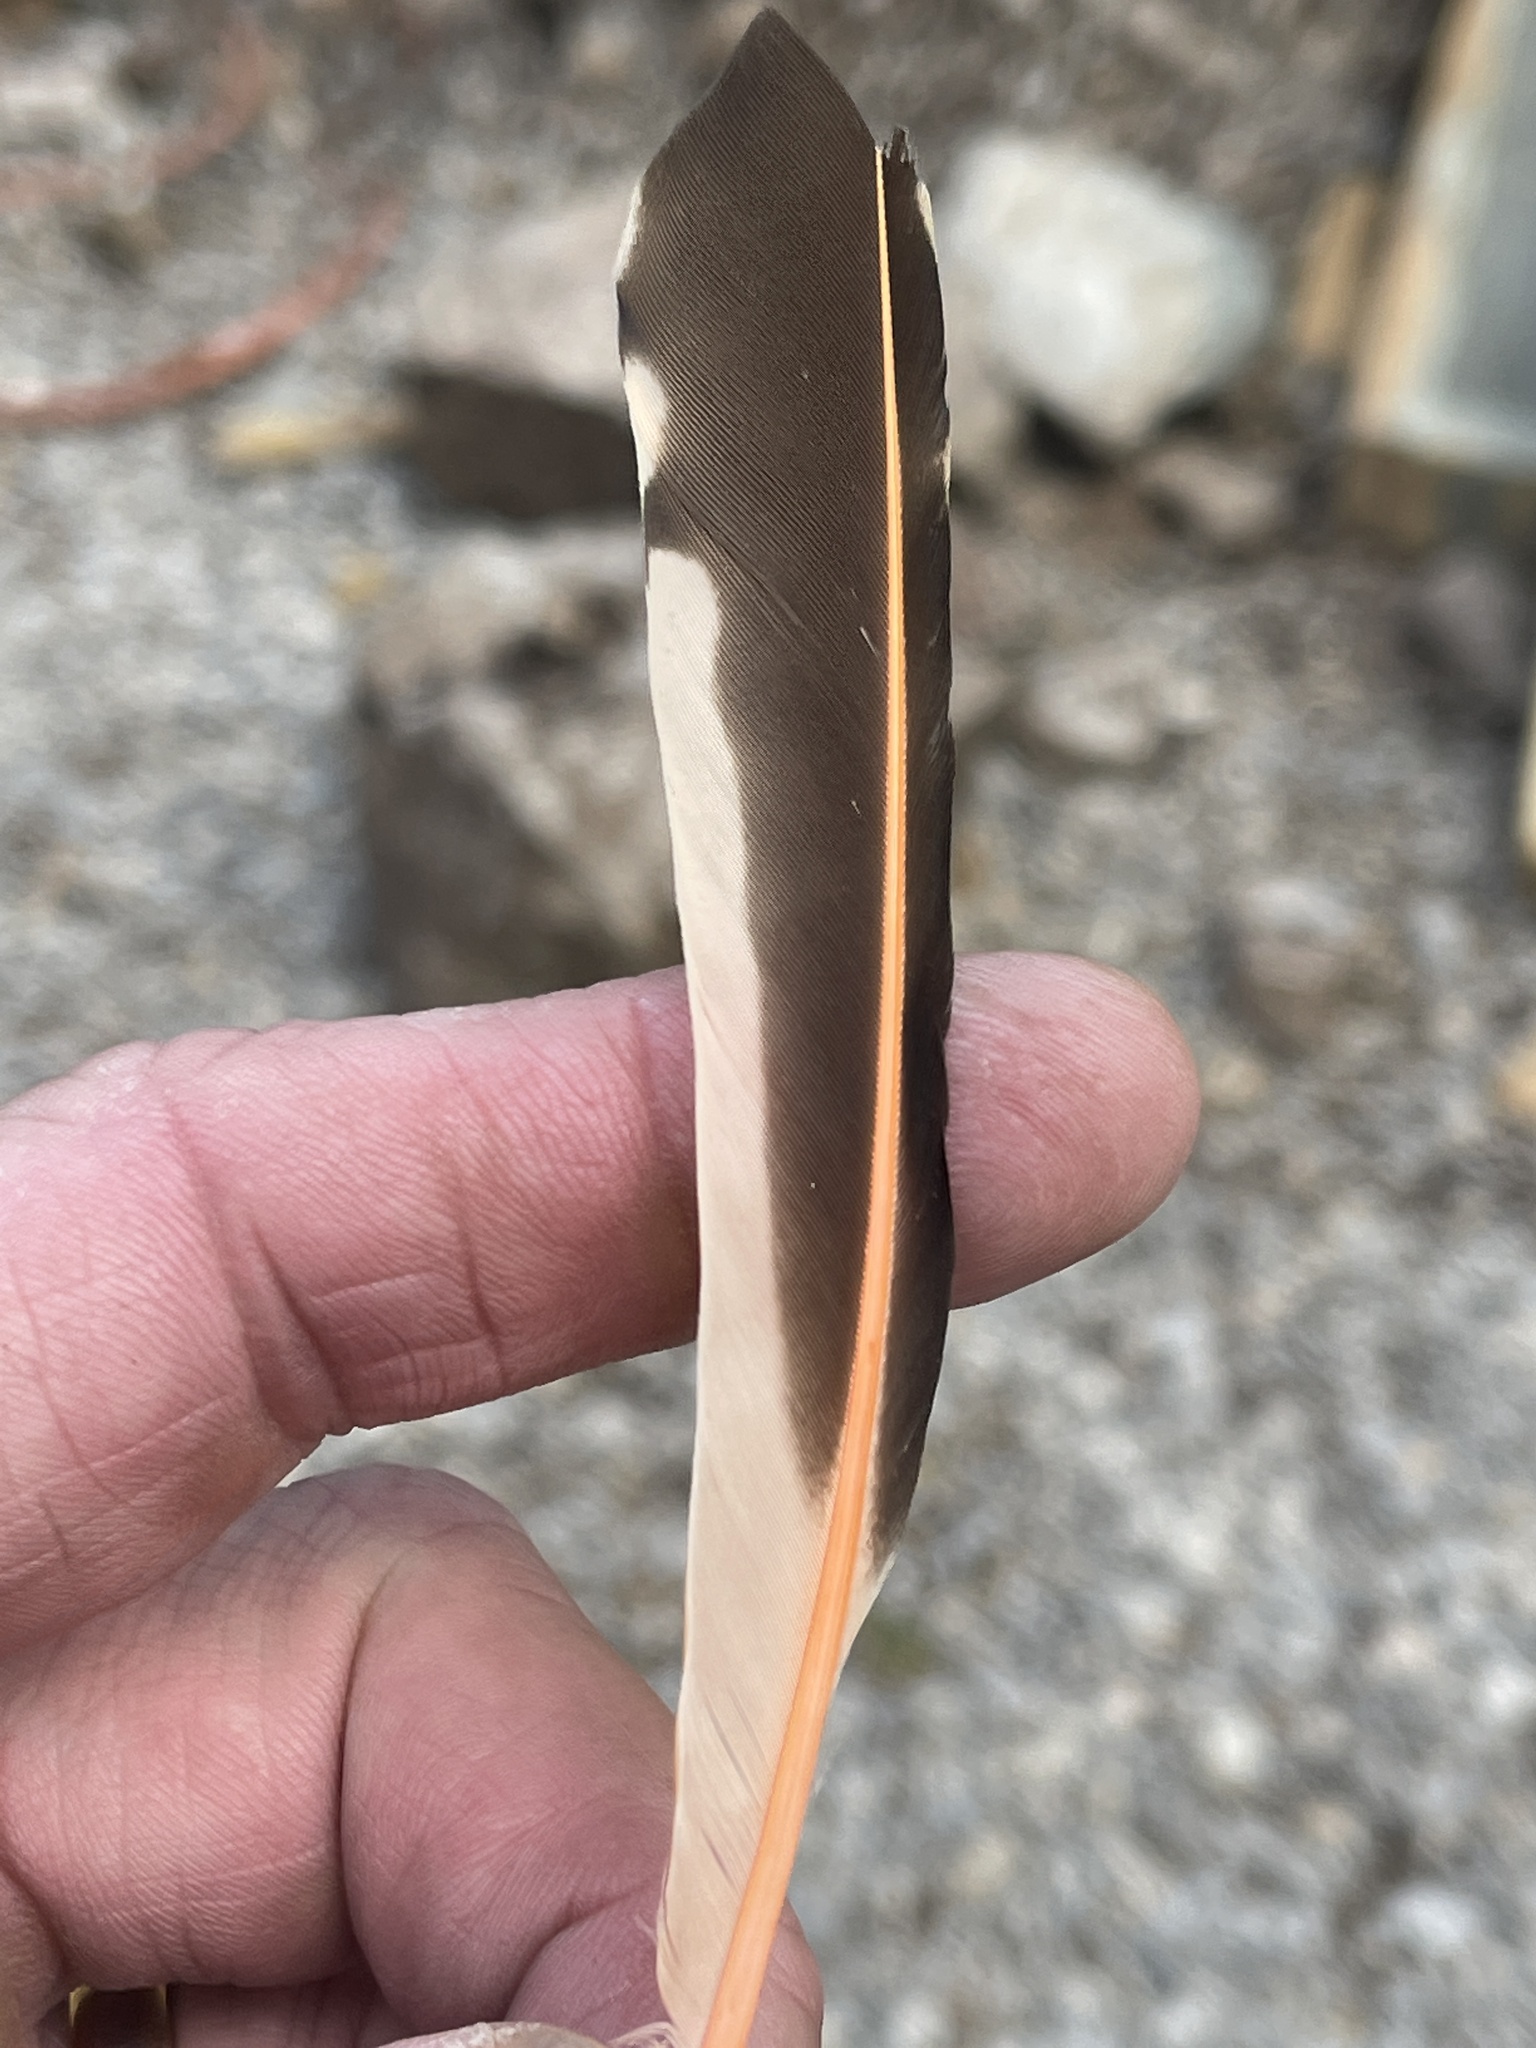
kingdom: Animalia
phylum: Chordata
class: Aves
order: Piciformes
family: Picidae
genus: Colaptes
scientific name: Colaptes auratus
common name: Northern flicker
